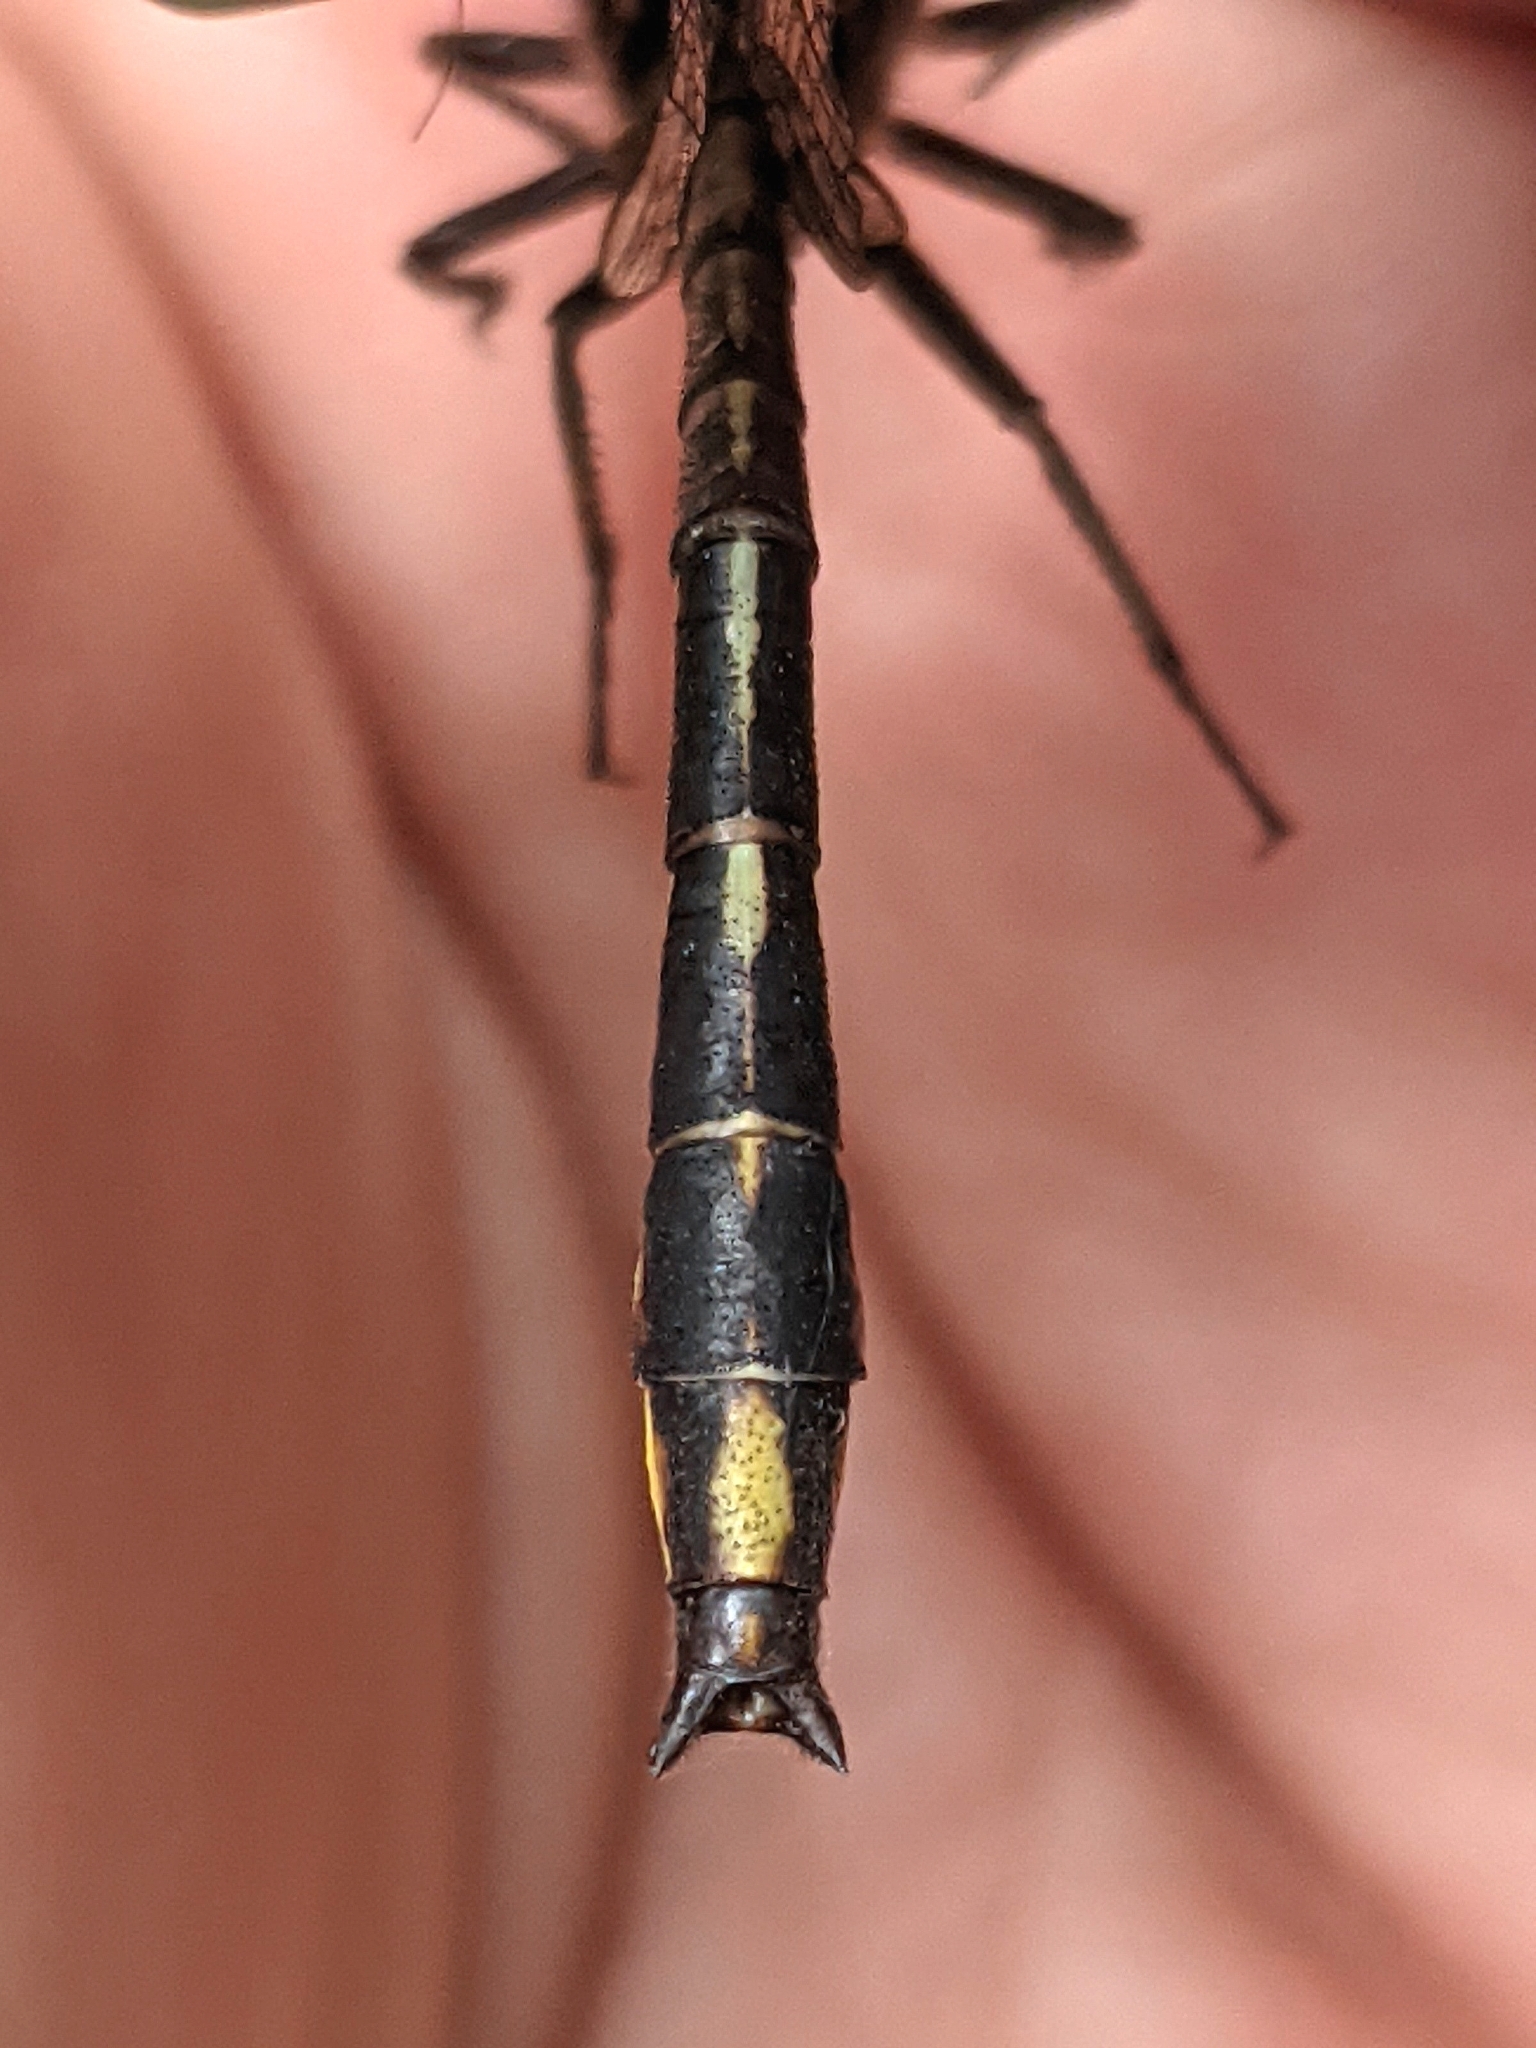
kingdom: Animalia
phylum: Arthropoda
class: Insecta
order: Odonata
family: Gomphidae
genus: Phanogomphus
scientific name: Phanogomphus exilis
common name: Lancet clubtail
